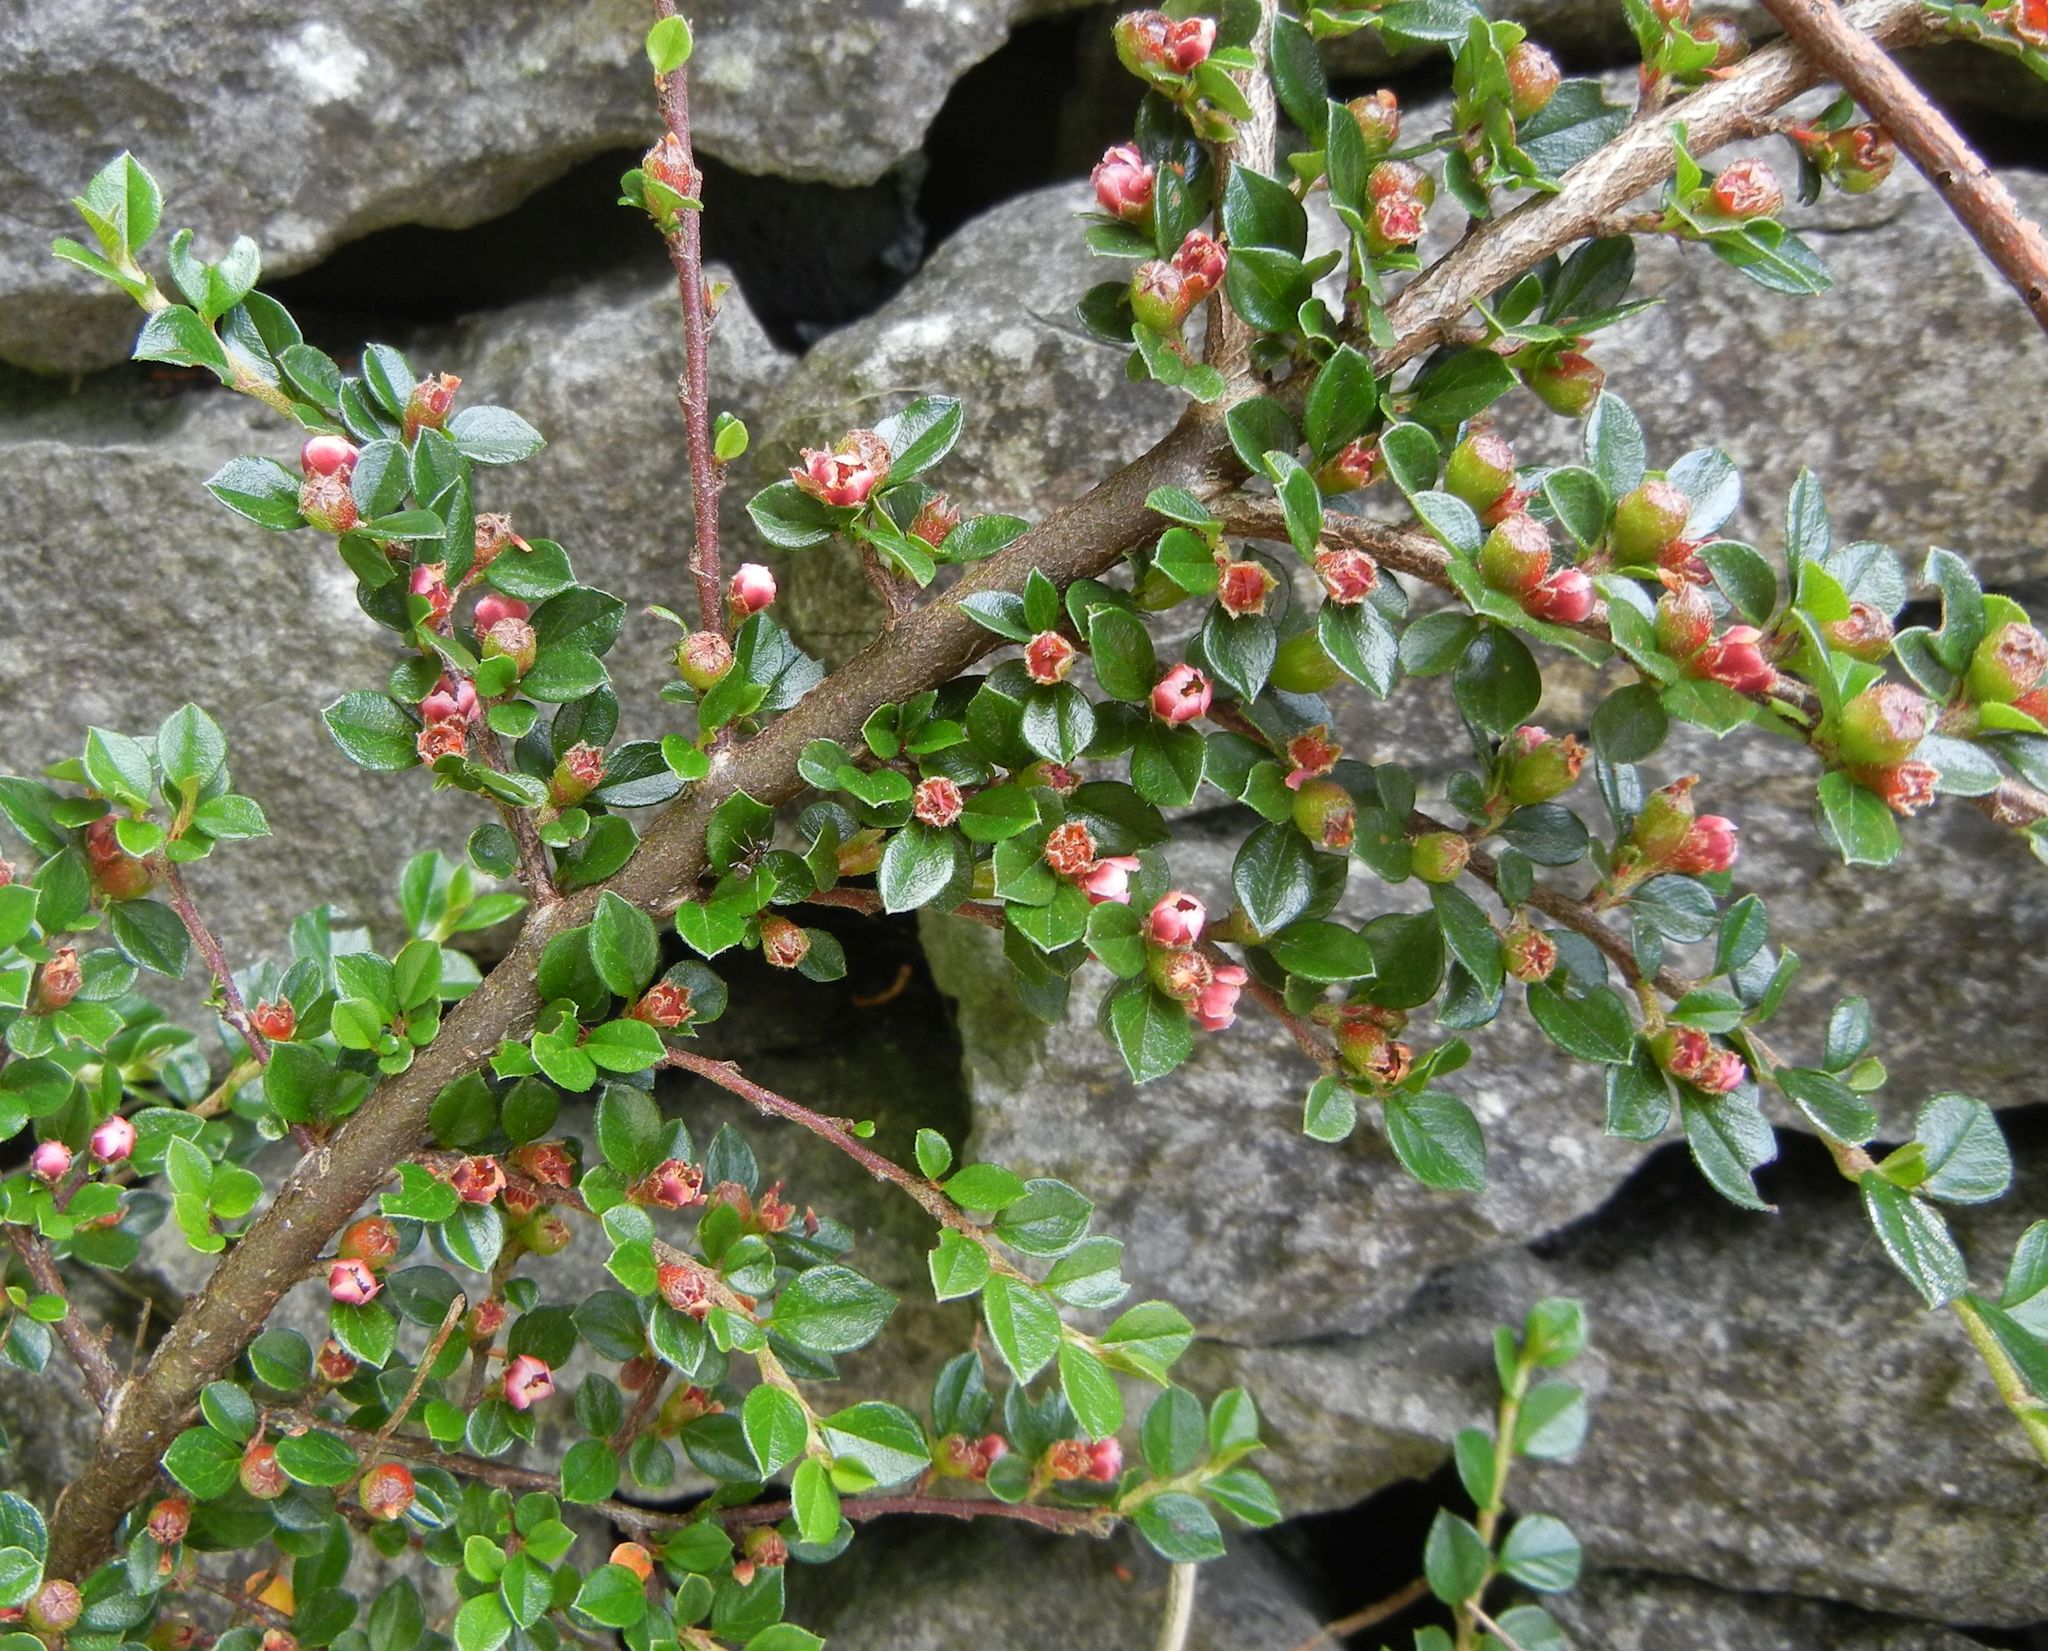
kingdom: Plantae
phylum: Tracheophyta
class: Magnoliopsida
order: Rosales
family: Rosaceae
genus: Cotoneaster
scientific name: Cotoneaster horizontalis
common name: Wall cotoneaster
